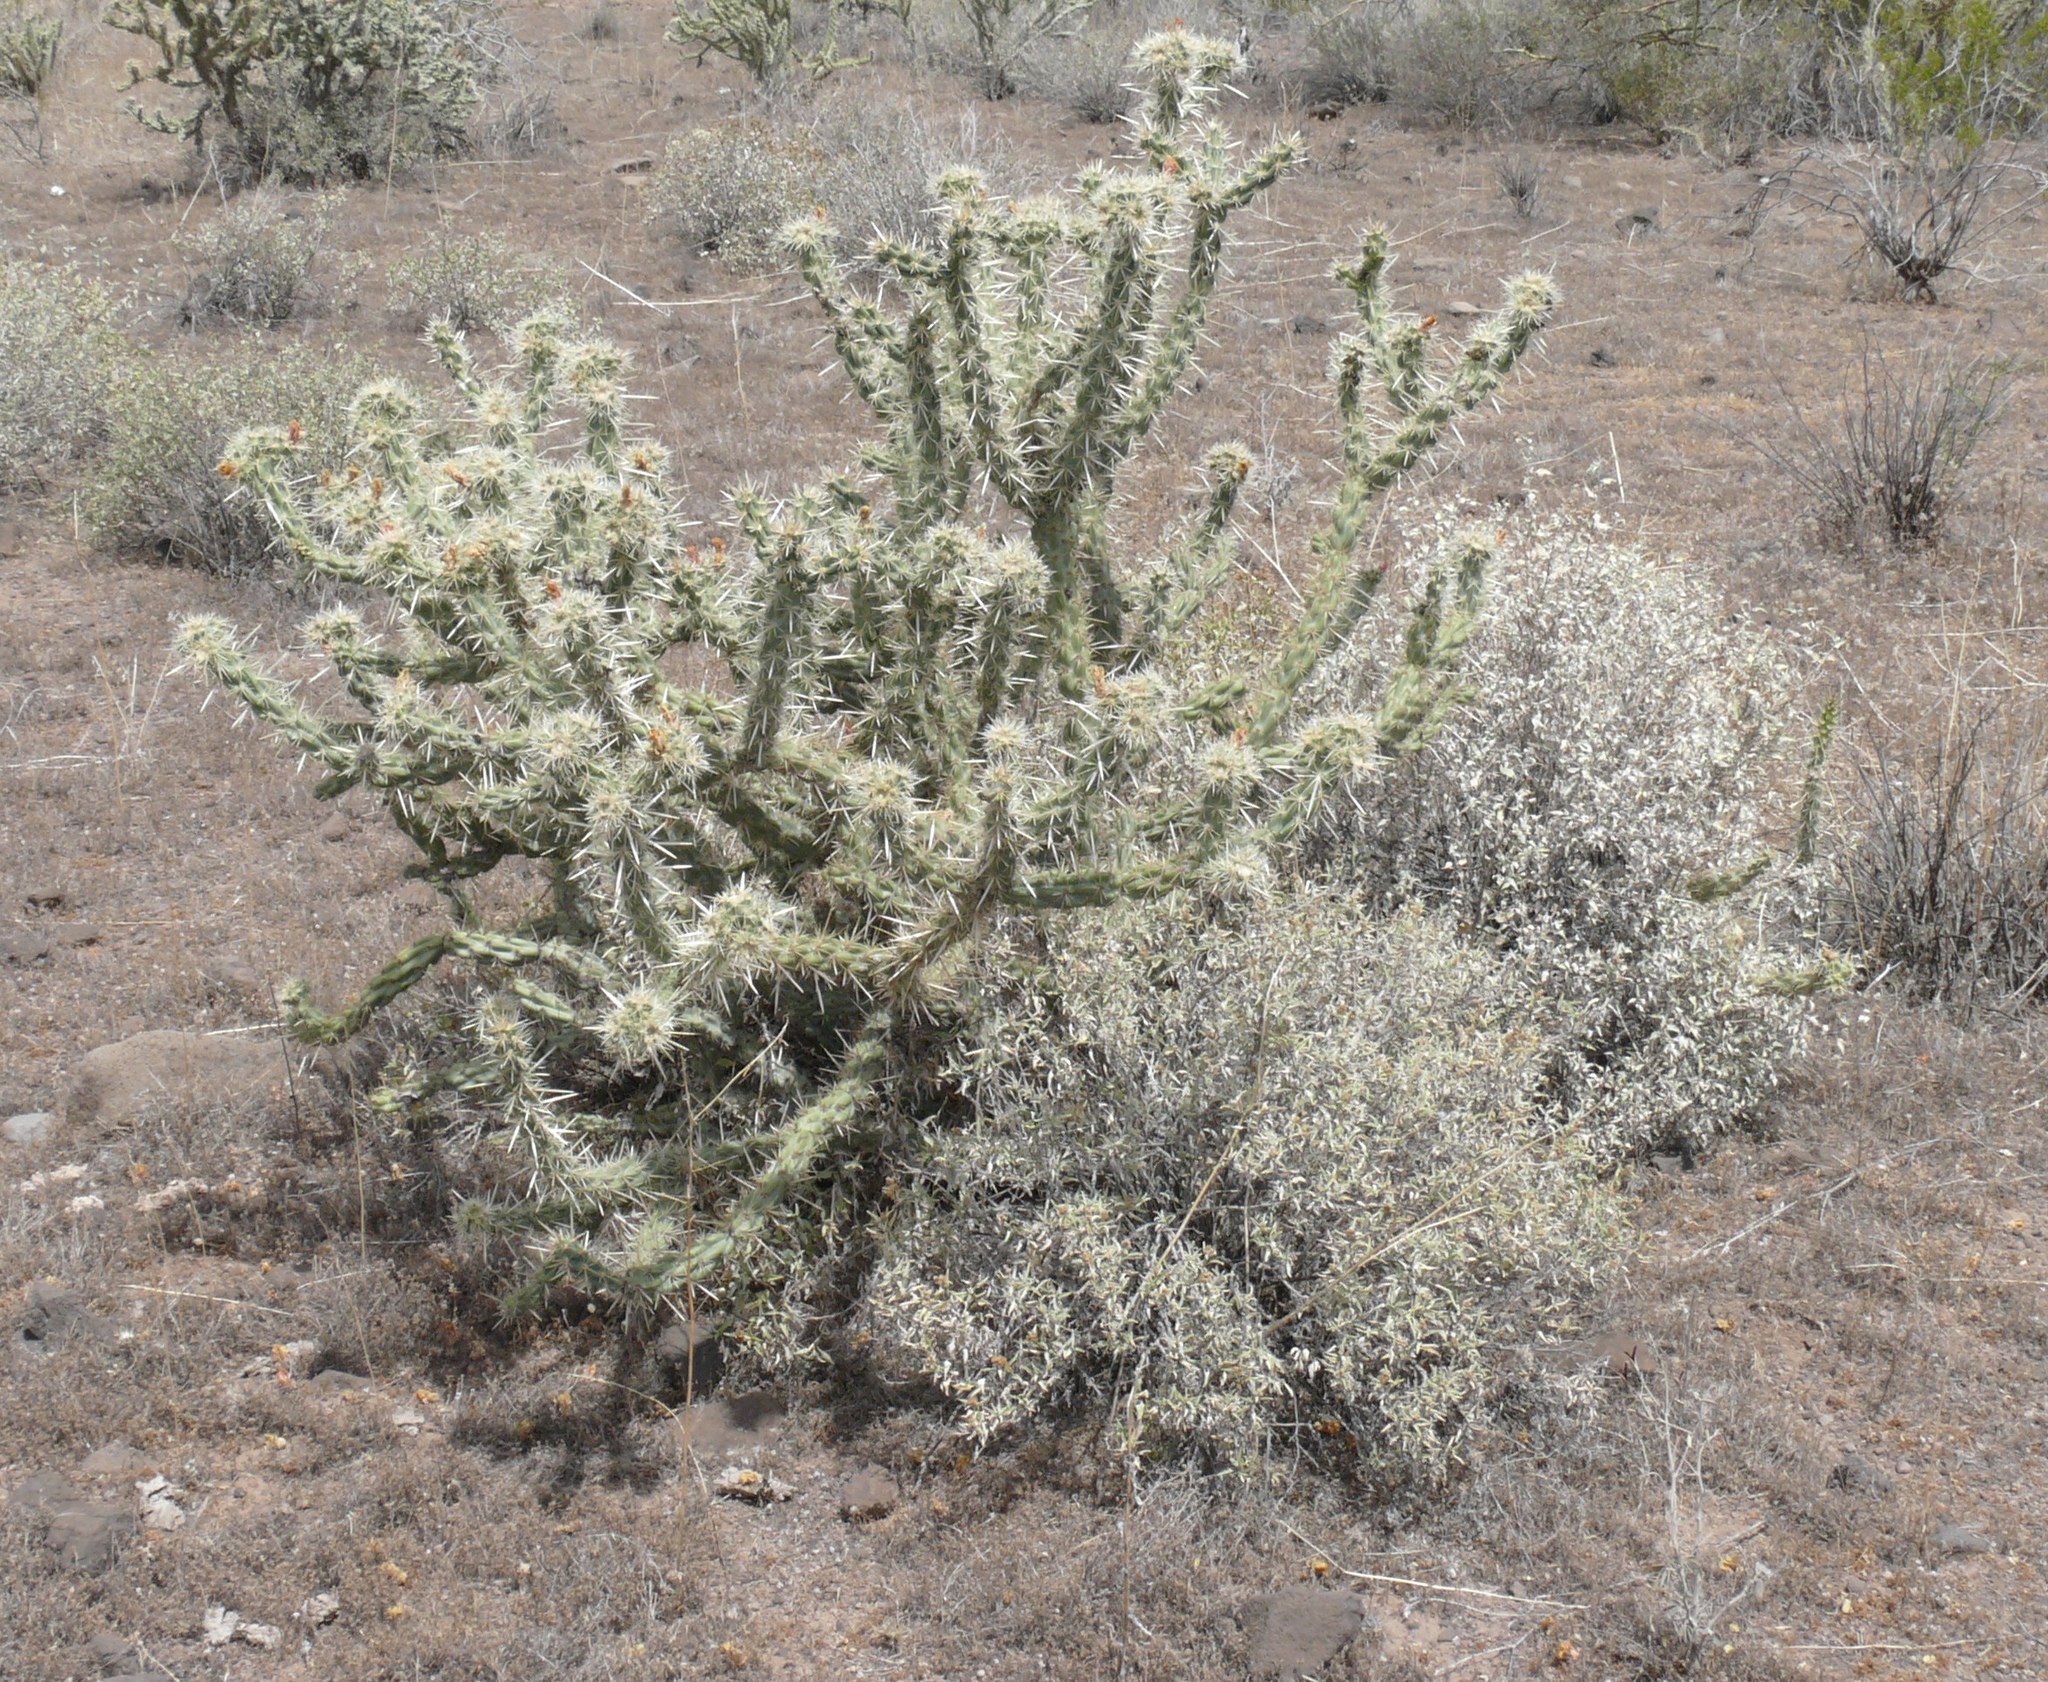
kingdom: Plantae
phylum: Tracheophyta
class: Magnoliopsida
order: Caryophyllales
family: Cactaceae
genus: Cylindropuntia
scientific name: Cylindropuntia acanthocarpa
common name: Buckhorn cholla
